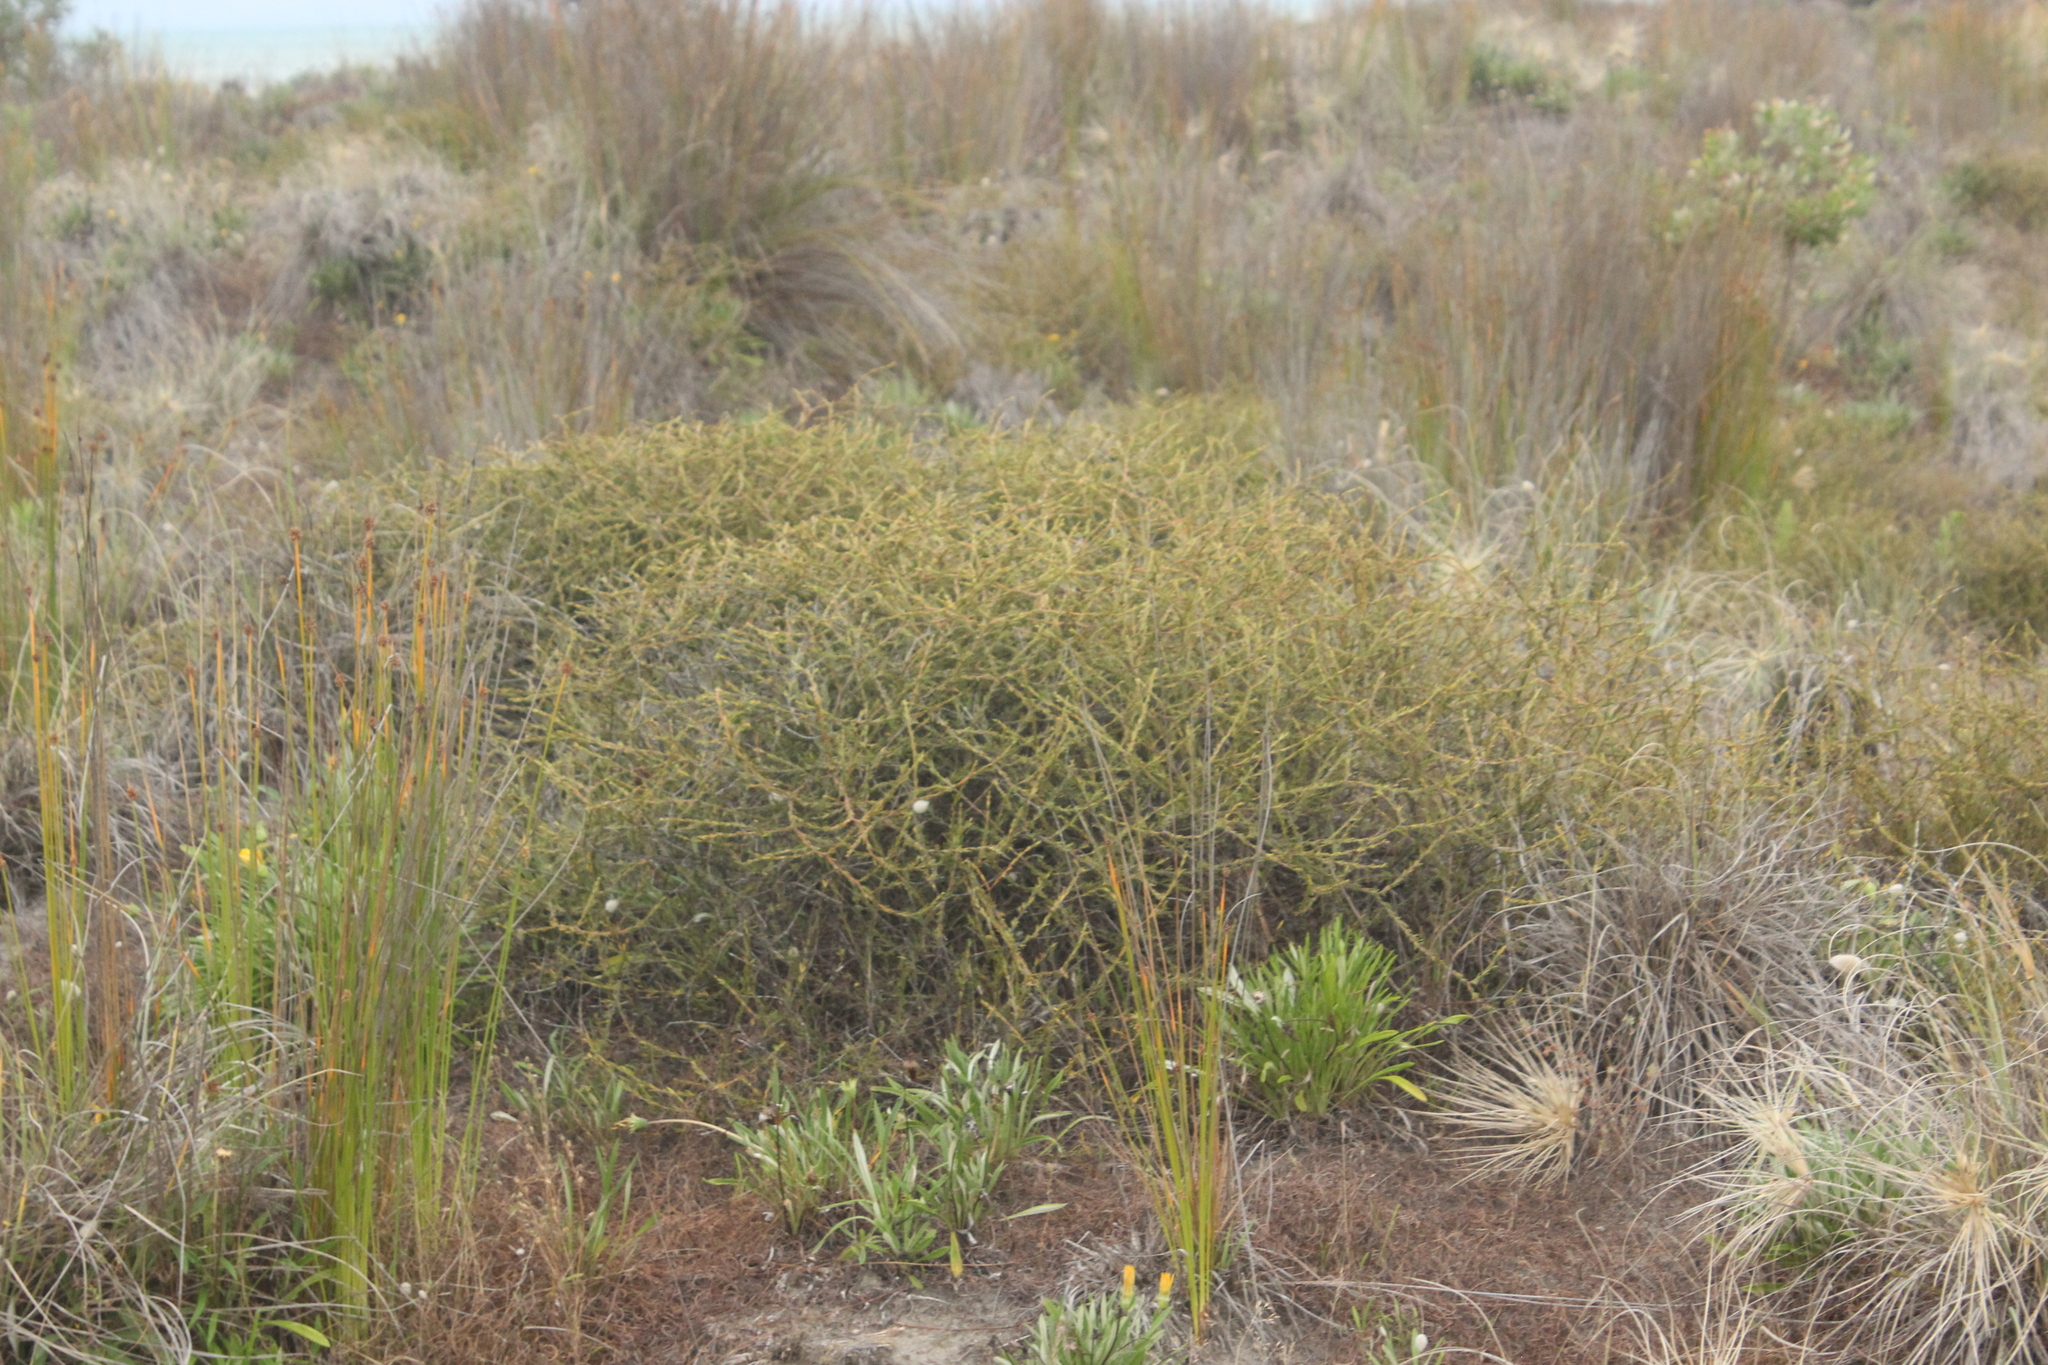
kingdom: Plantae
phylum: Tracheophyta
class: Magnoliopsida
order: Gentianales
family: Rubiaceae
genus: Coprosma
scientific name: Coprosma acerosa
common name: Sand coprosma
